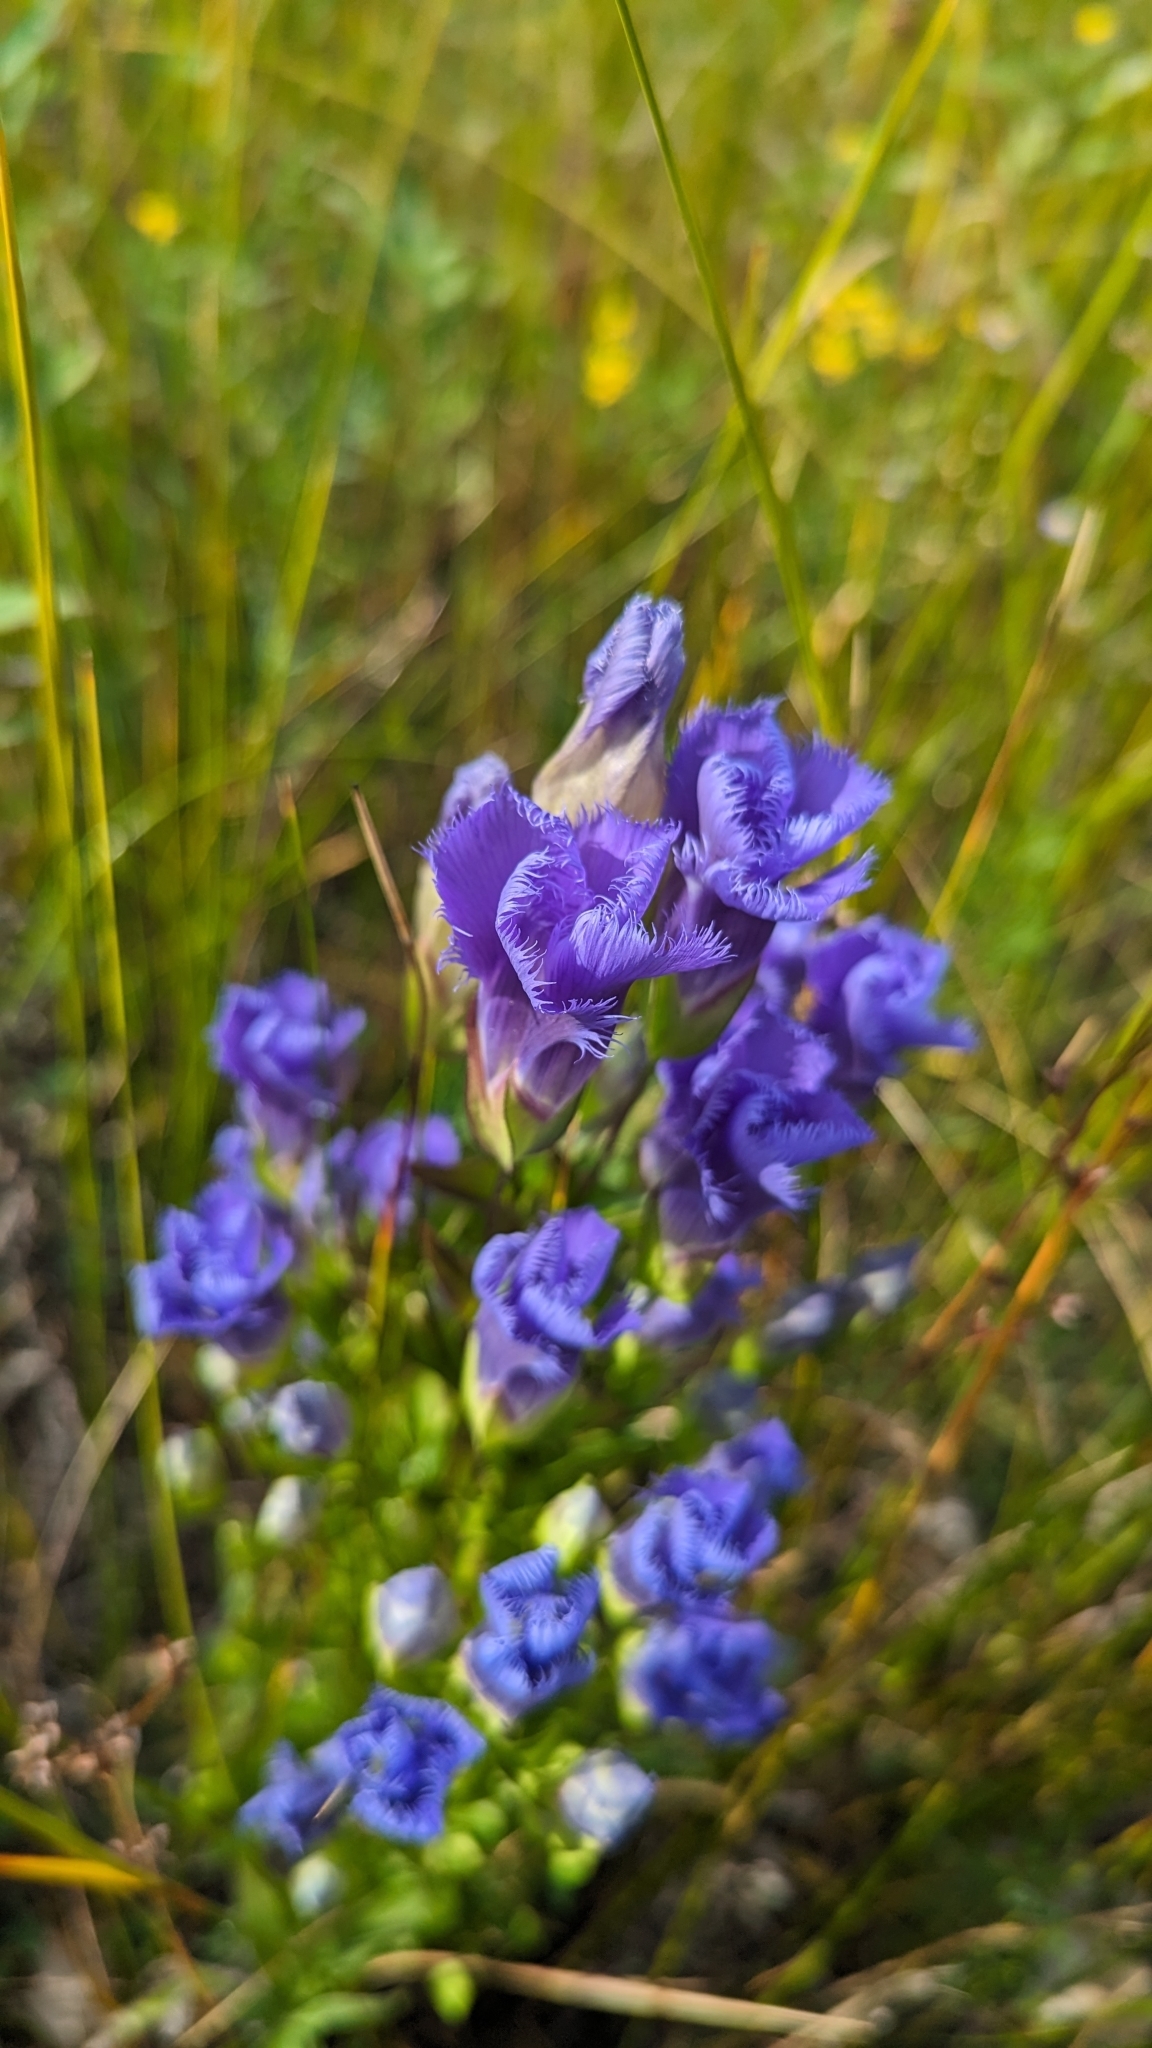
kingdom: Plantae
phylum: Tracheophyta
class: Magnoliopsida
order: Gentianales
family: Gentianaceae
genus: Gentianopsis
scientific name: Gentianopsis crinita
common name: Fringed-gentian
